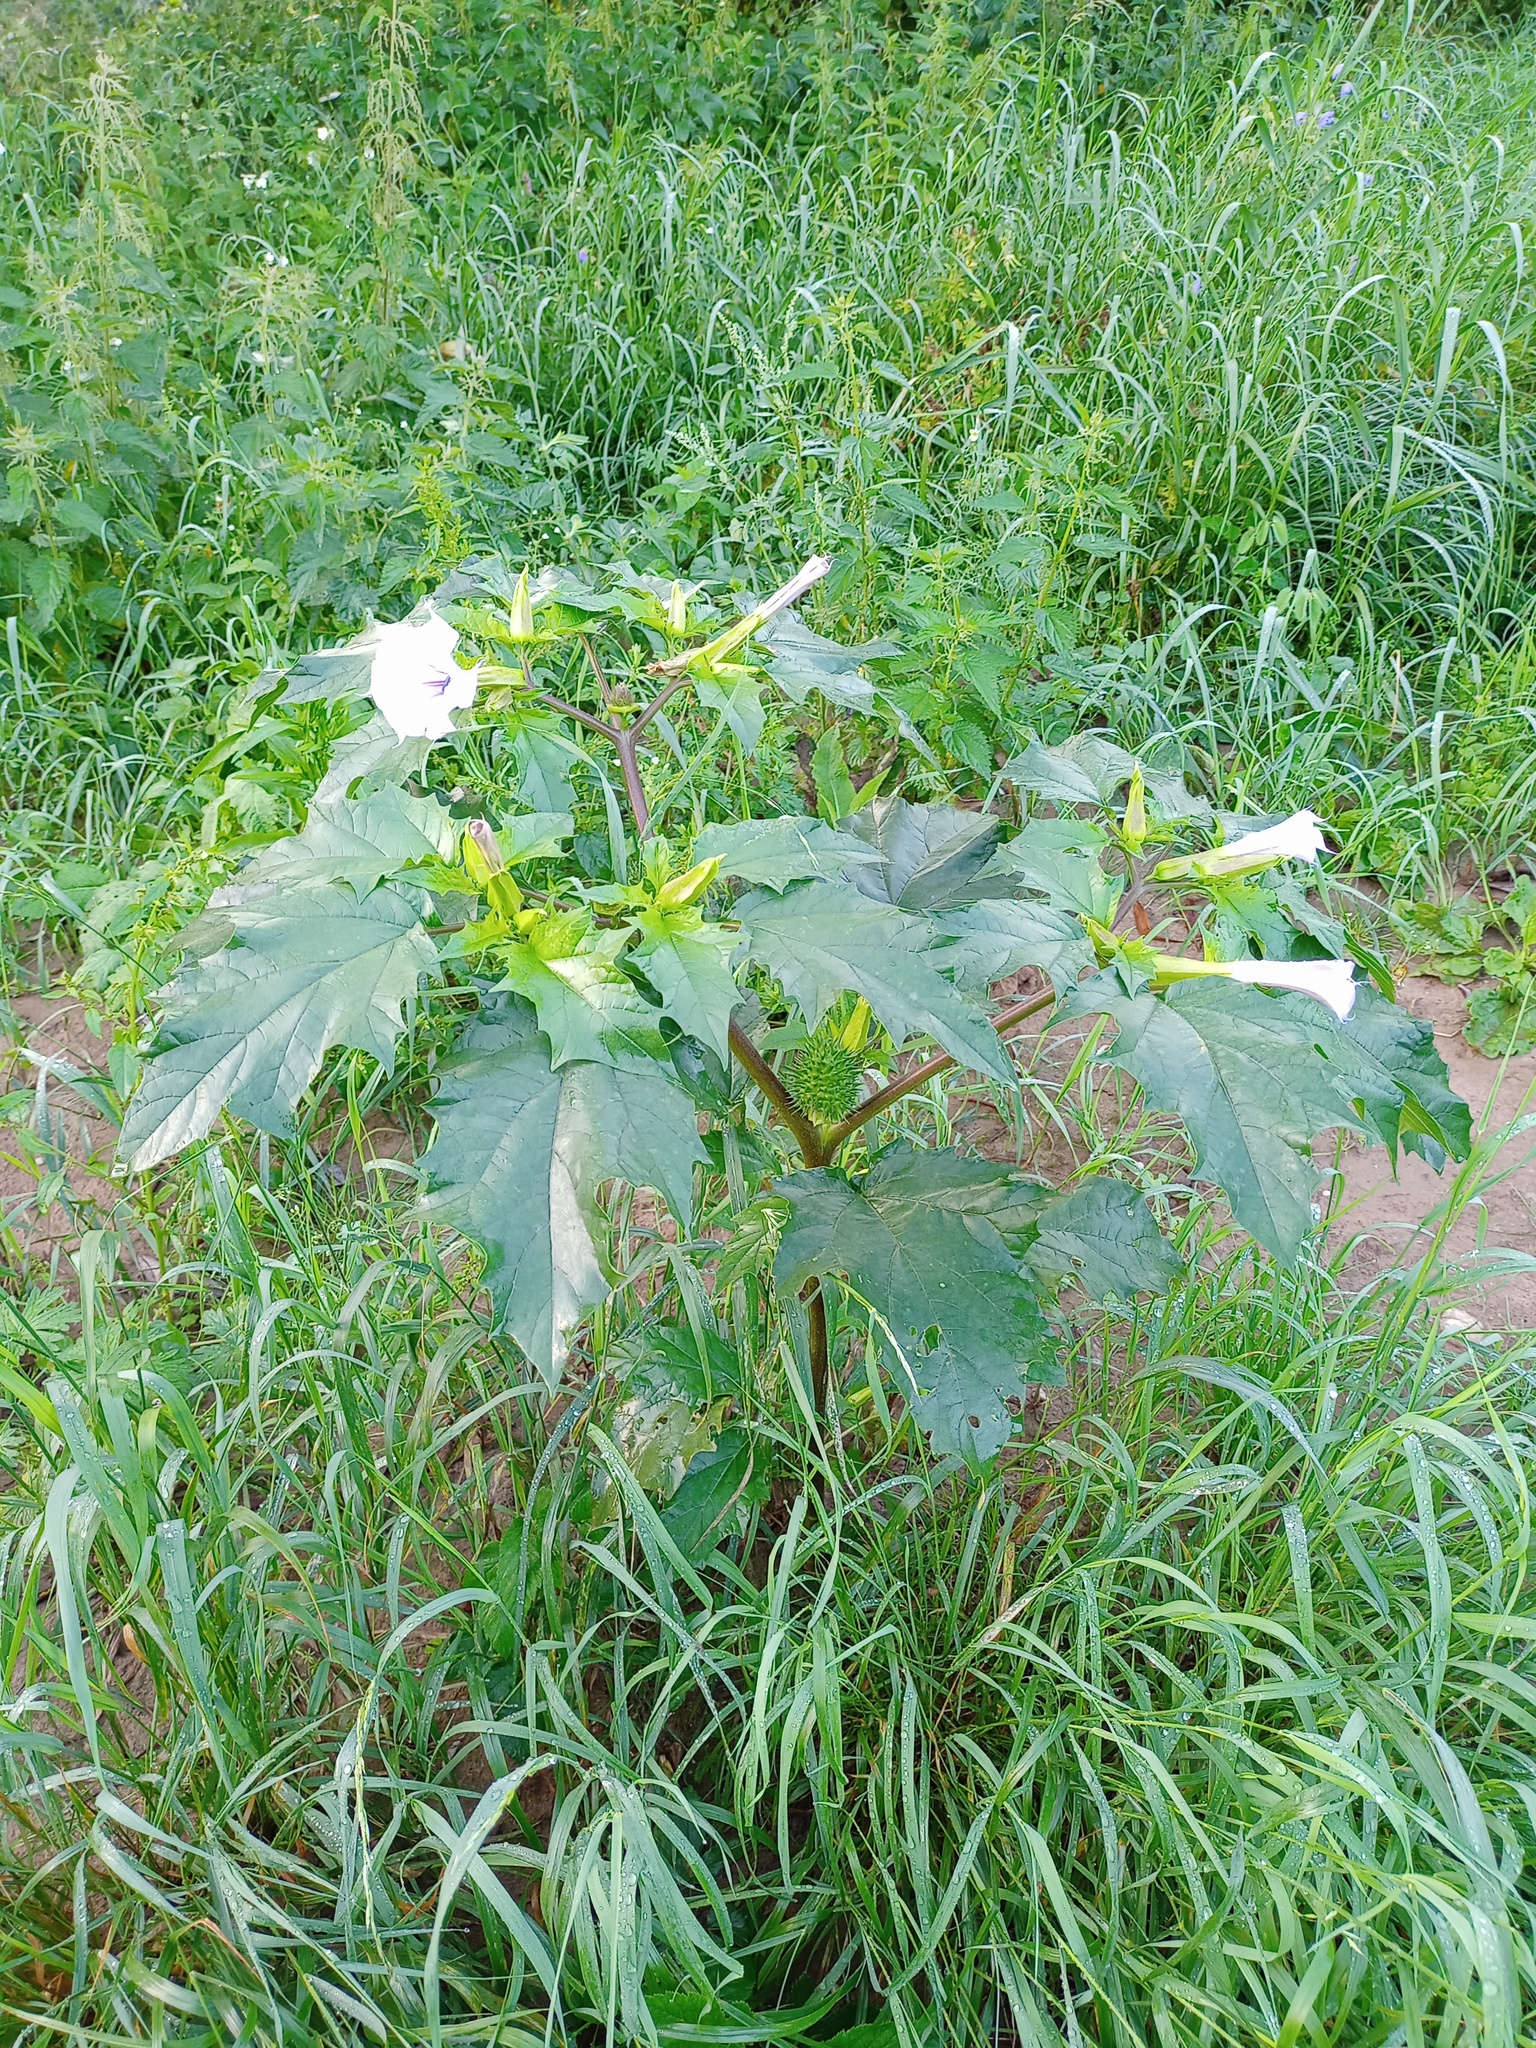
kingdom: Plantae
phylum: Tracheophyta
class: Magnoliopsida
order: Solanales
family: Solanaceae
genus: Datura
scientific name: Datura stramonium
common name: Thorn-apple
